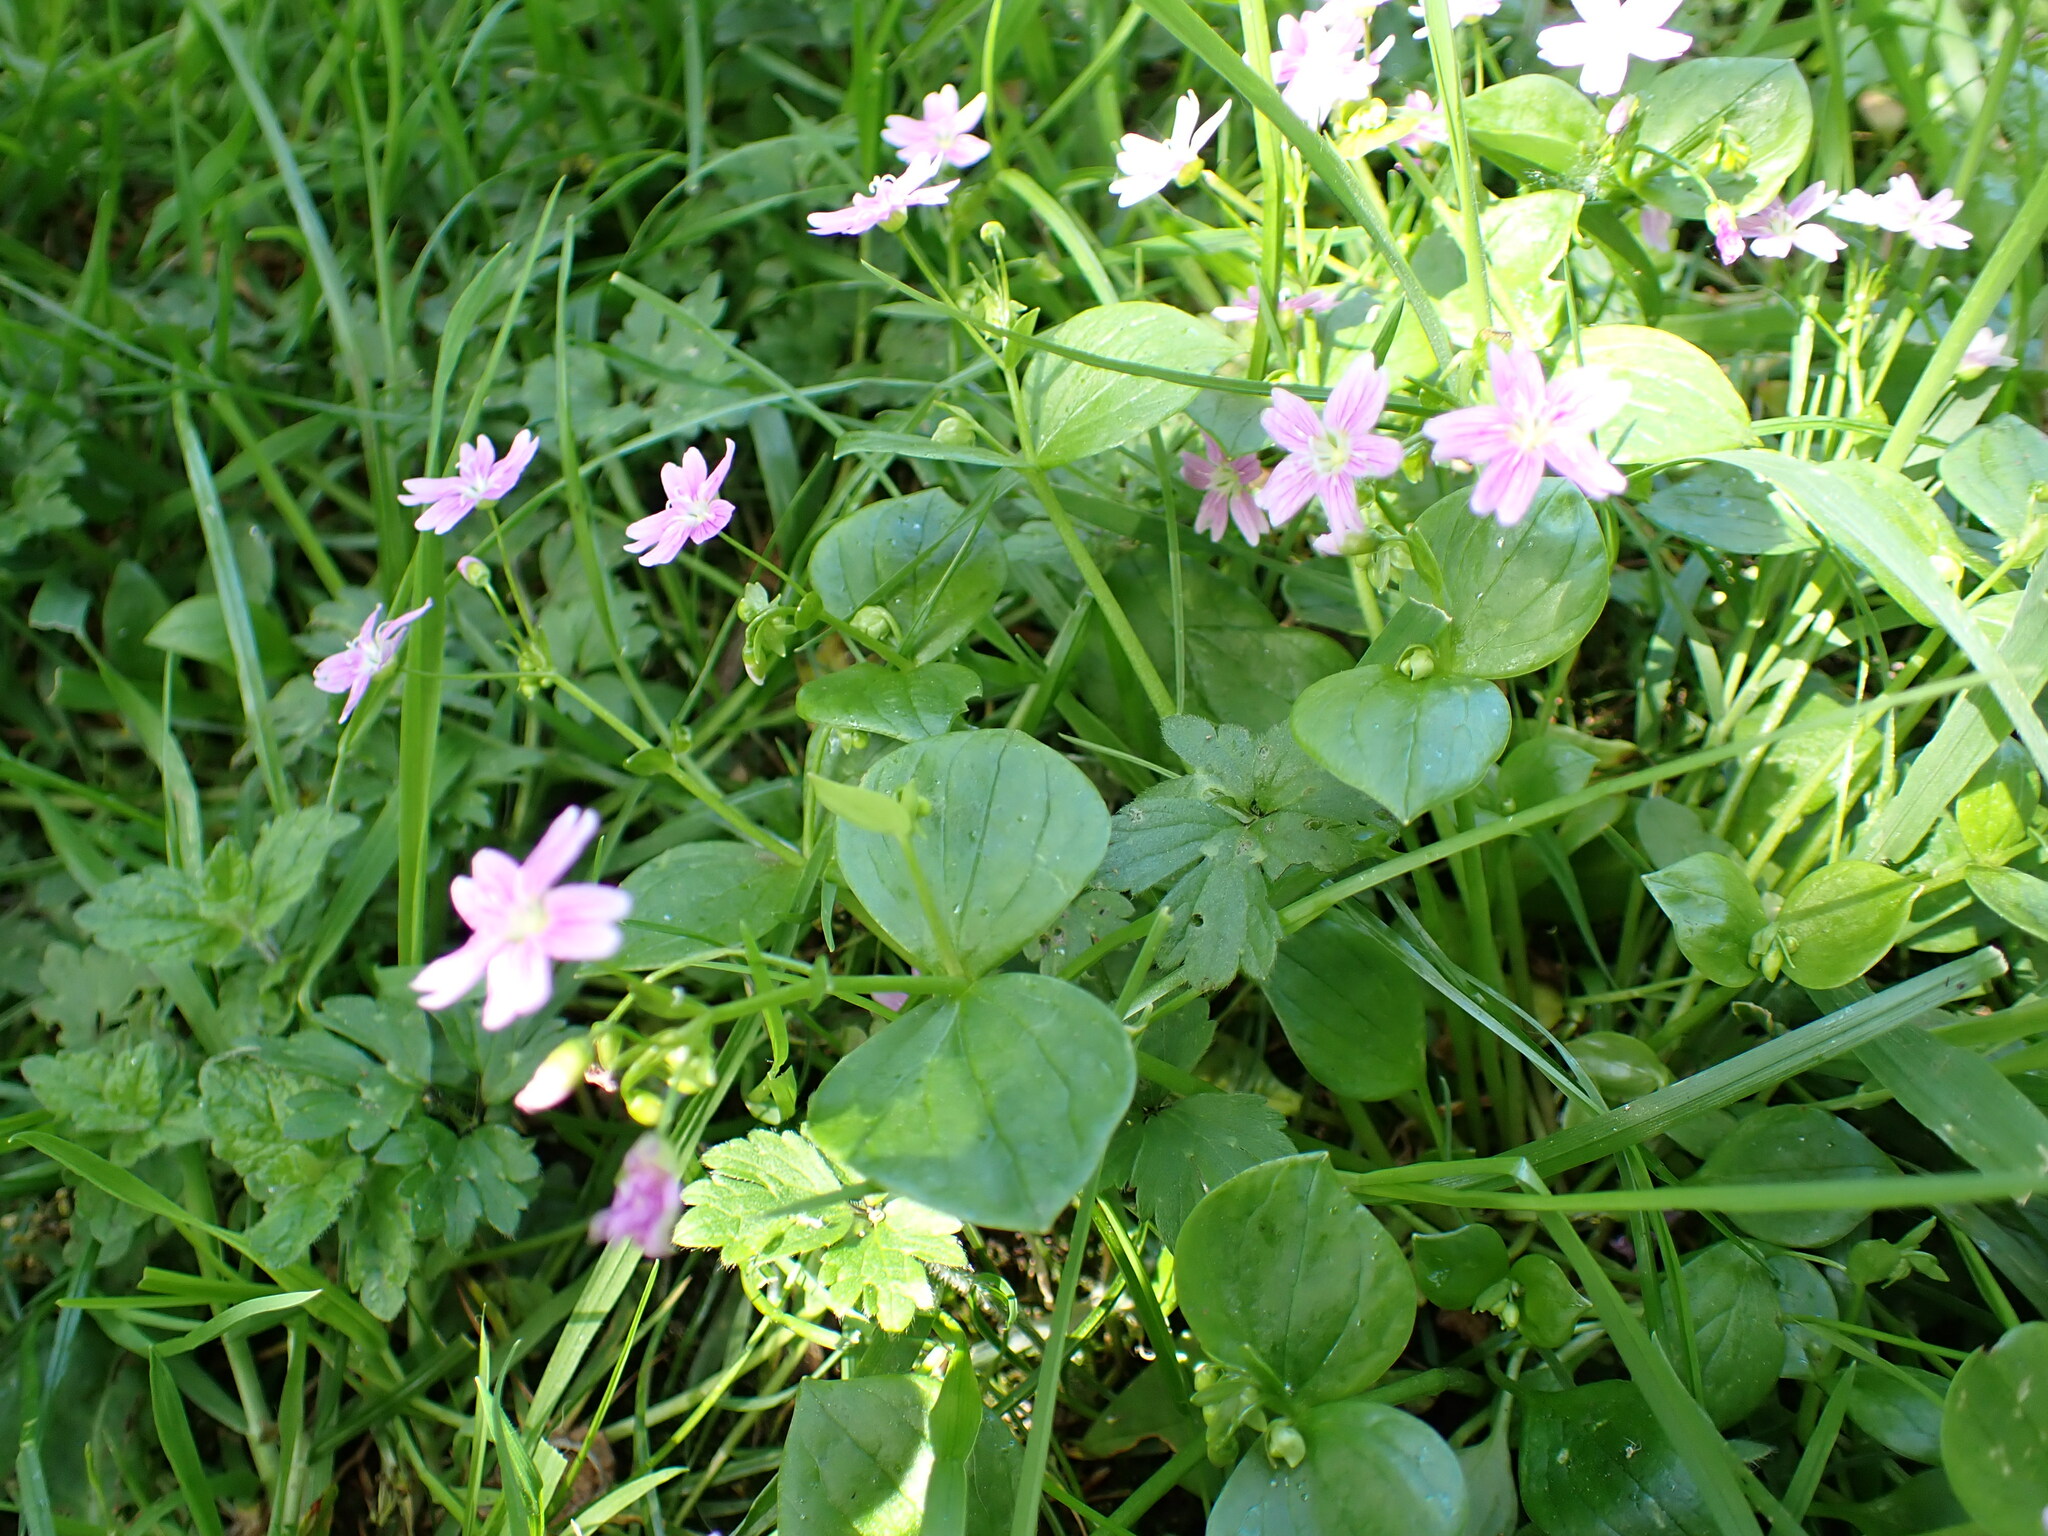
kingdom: Plantae
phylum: Tracheophyta
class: Magnoliopsida
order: Caryophyllales
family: Montiaceae
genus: Claytonia
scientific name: Claytonia sibirica
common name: Pink purslane
